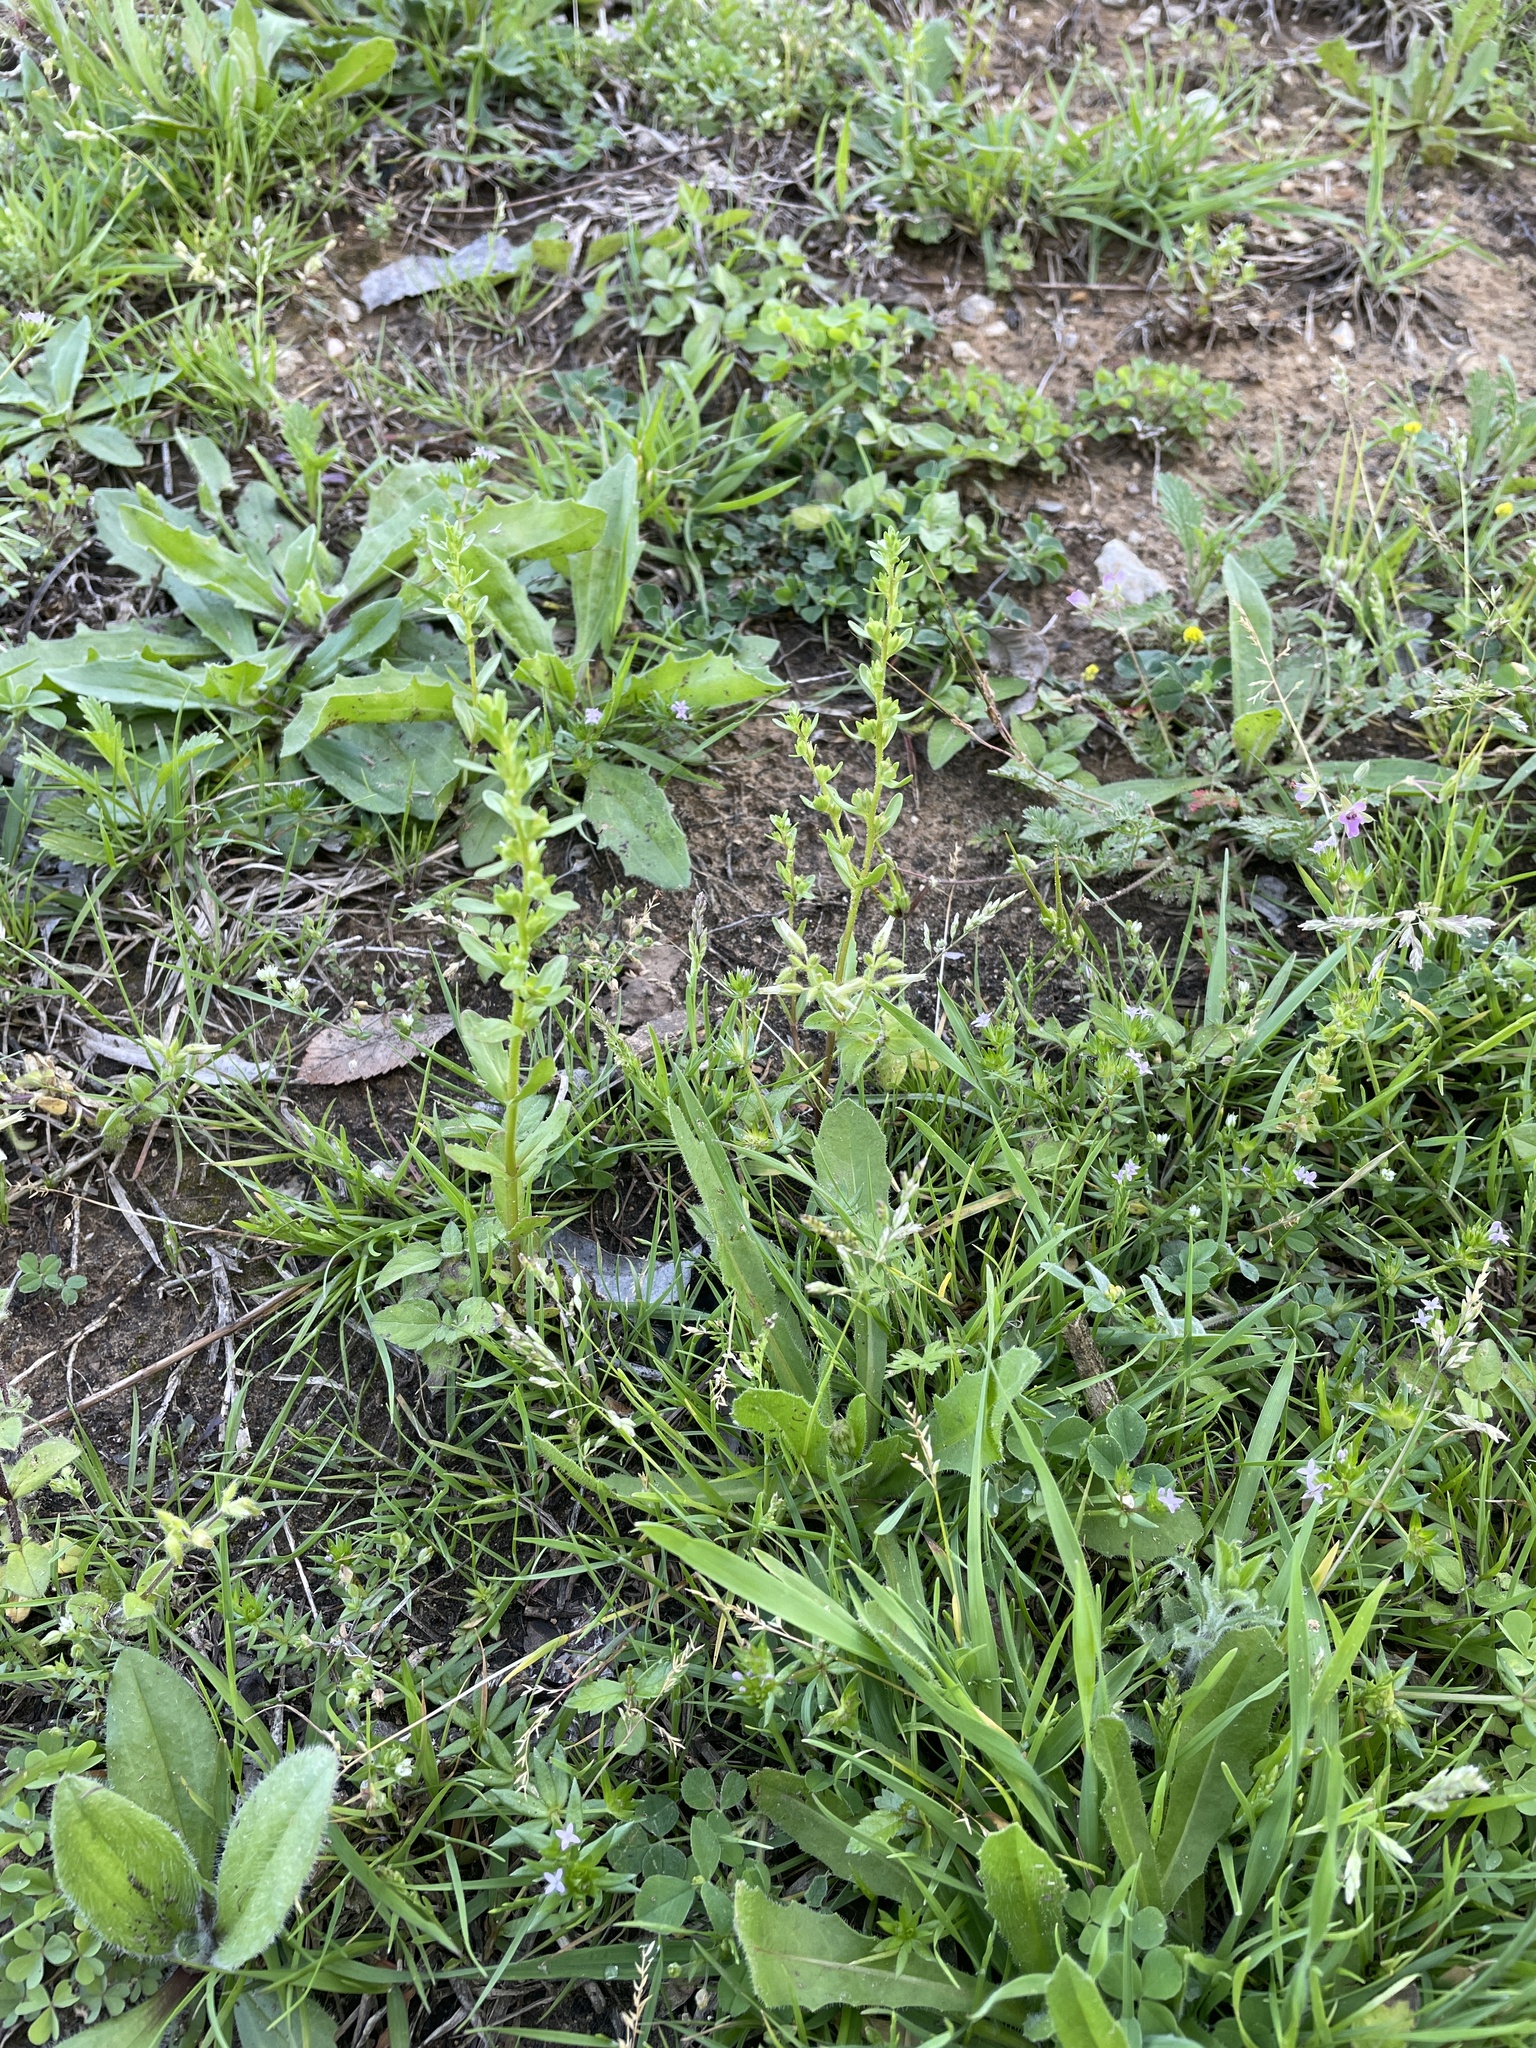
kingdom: Plantae
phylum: Tracheophyta
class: Magnoliopsida
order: Lamiales
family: Plantaginaceae
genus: Veronica
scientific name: Veronica peregrina
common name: Neckweed
